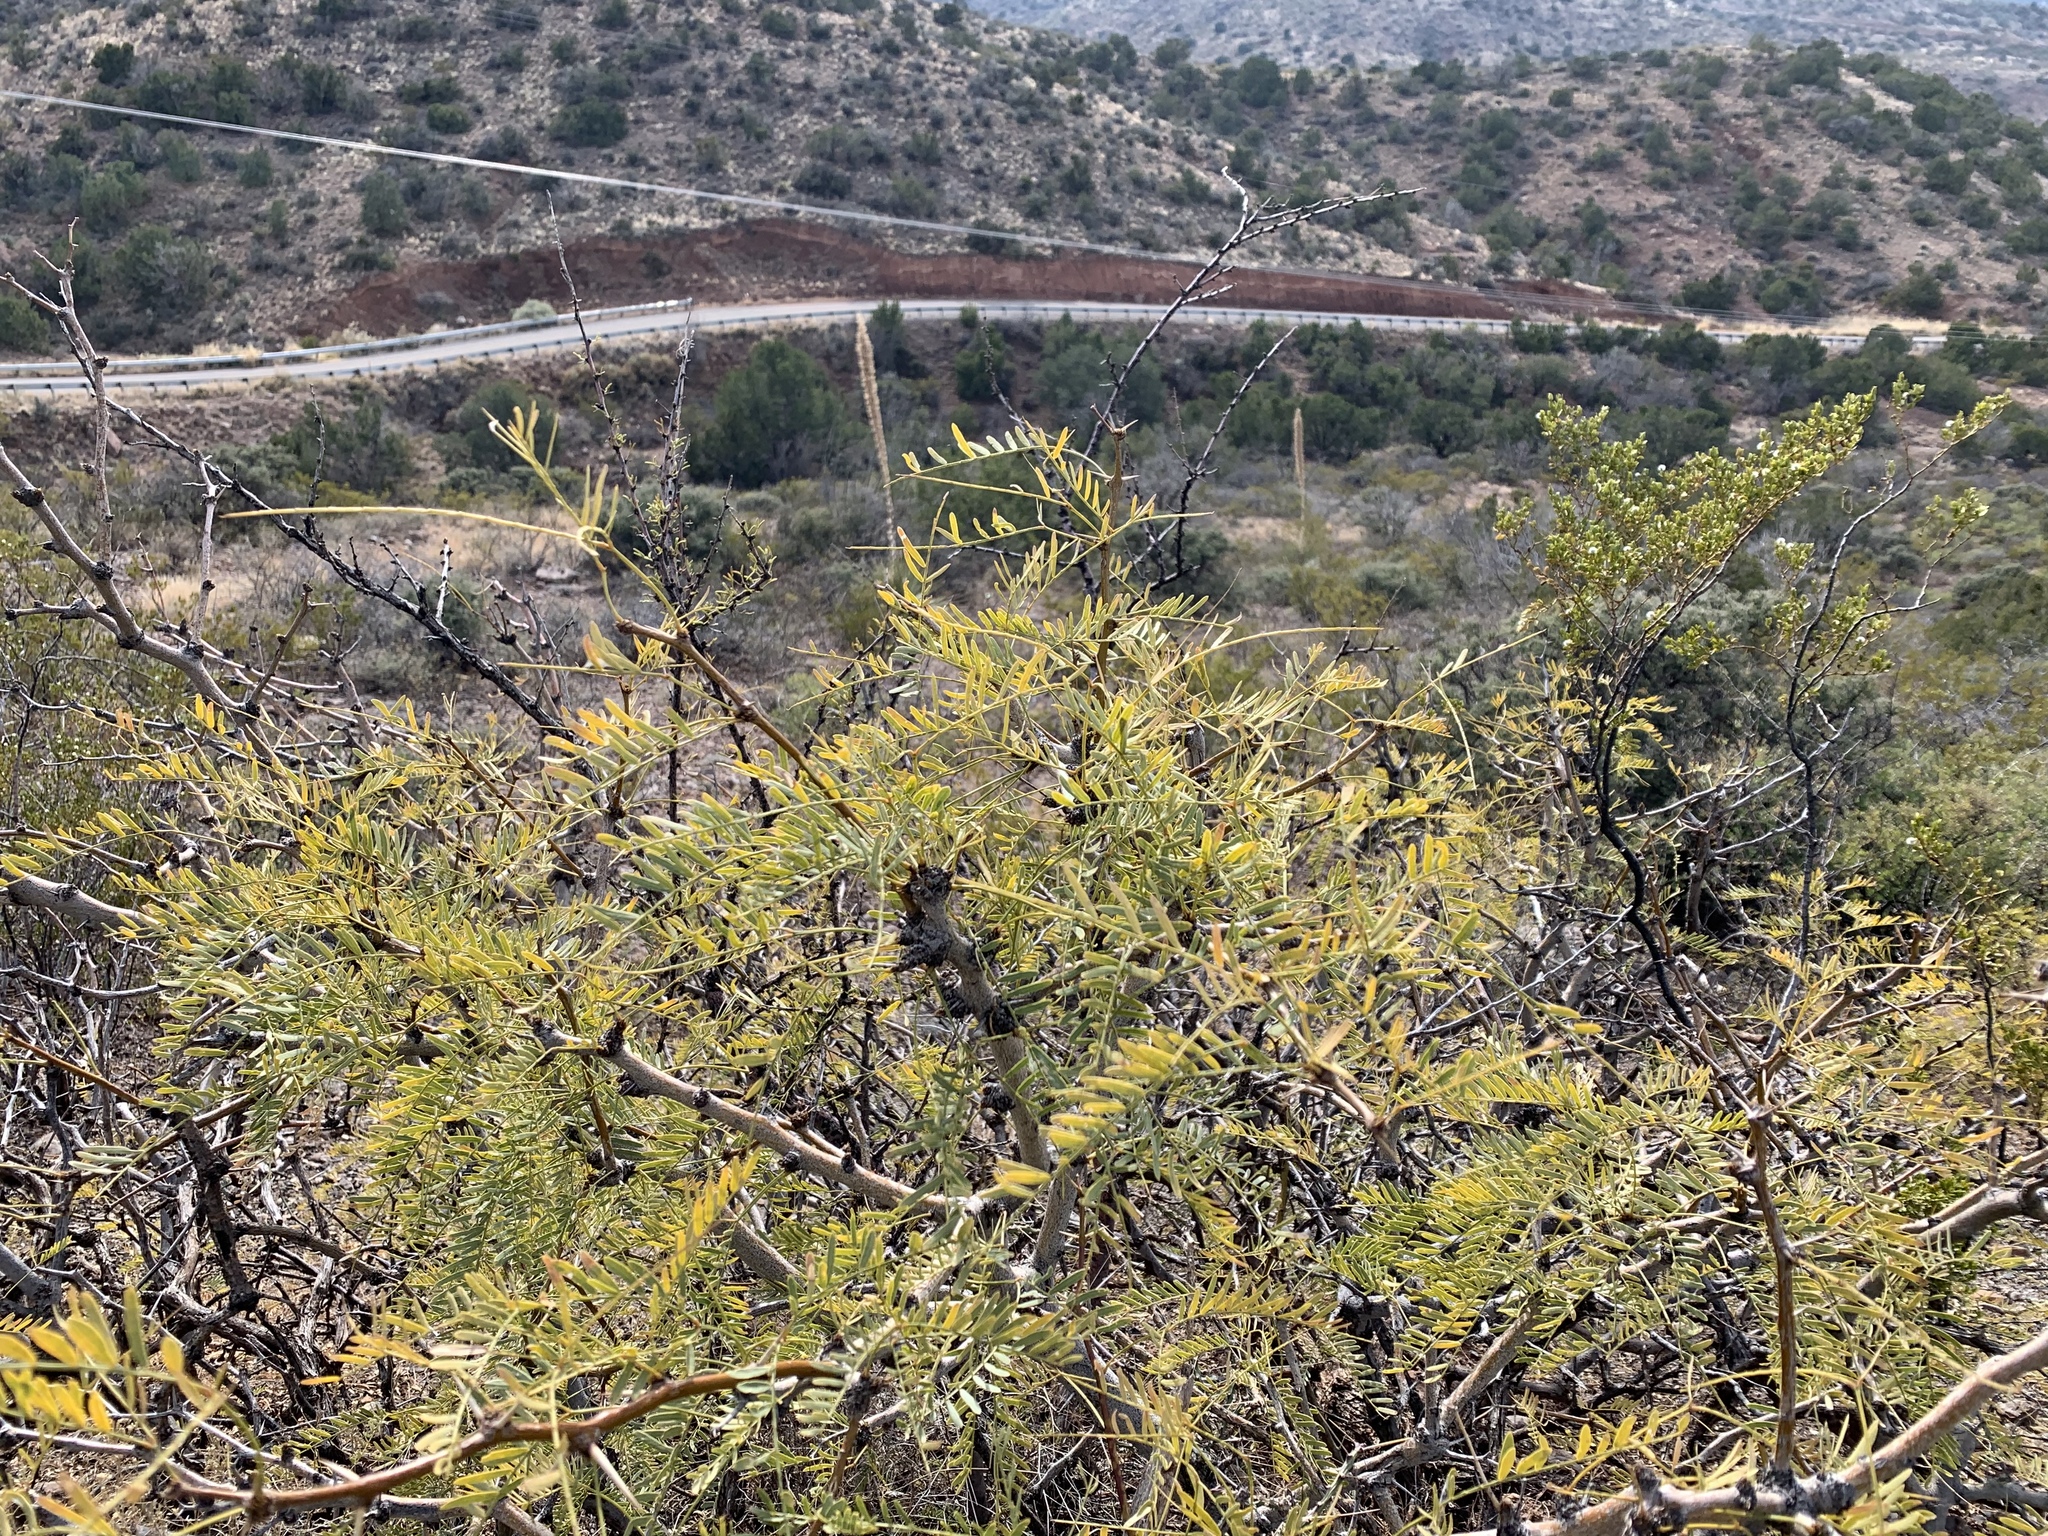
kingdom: Plantae
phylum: Tracheophyta
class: Magnoliopsida
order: Fabales
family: Fabaceae
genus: Prosopis
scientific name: Prosopis glandulosa
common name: Honey mesquite
